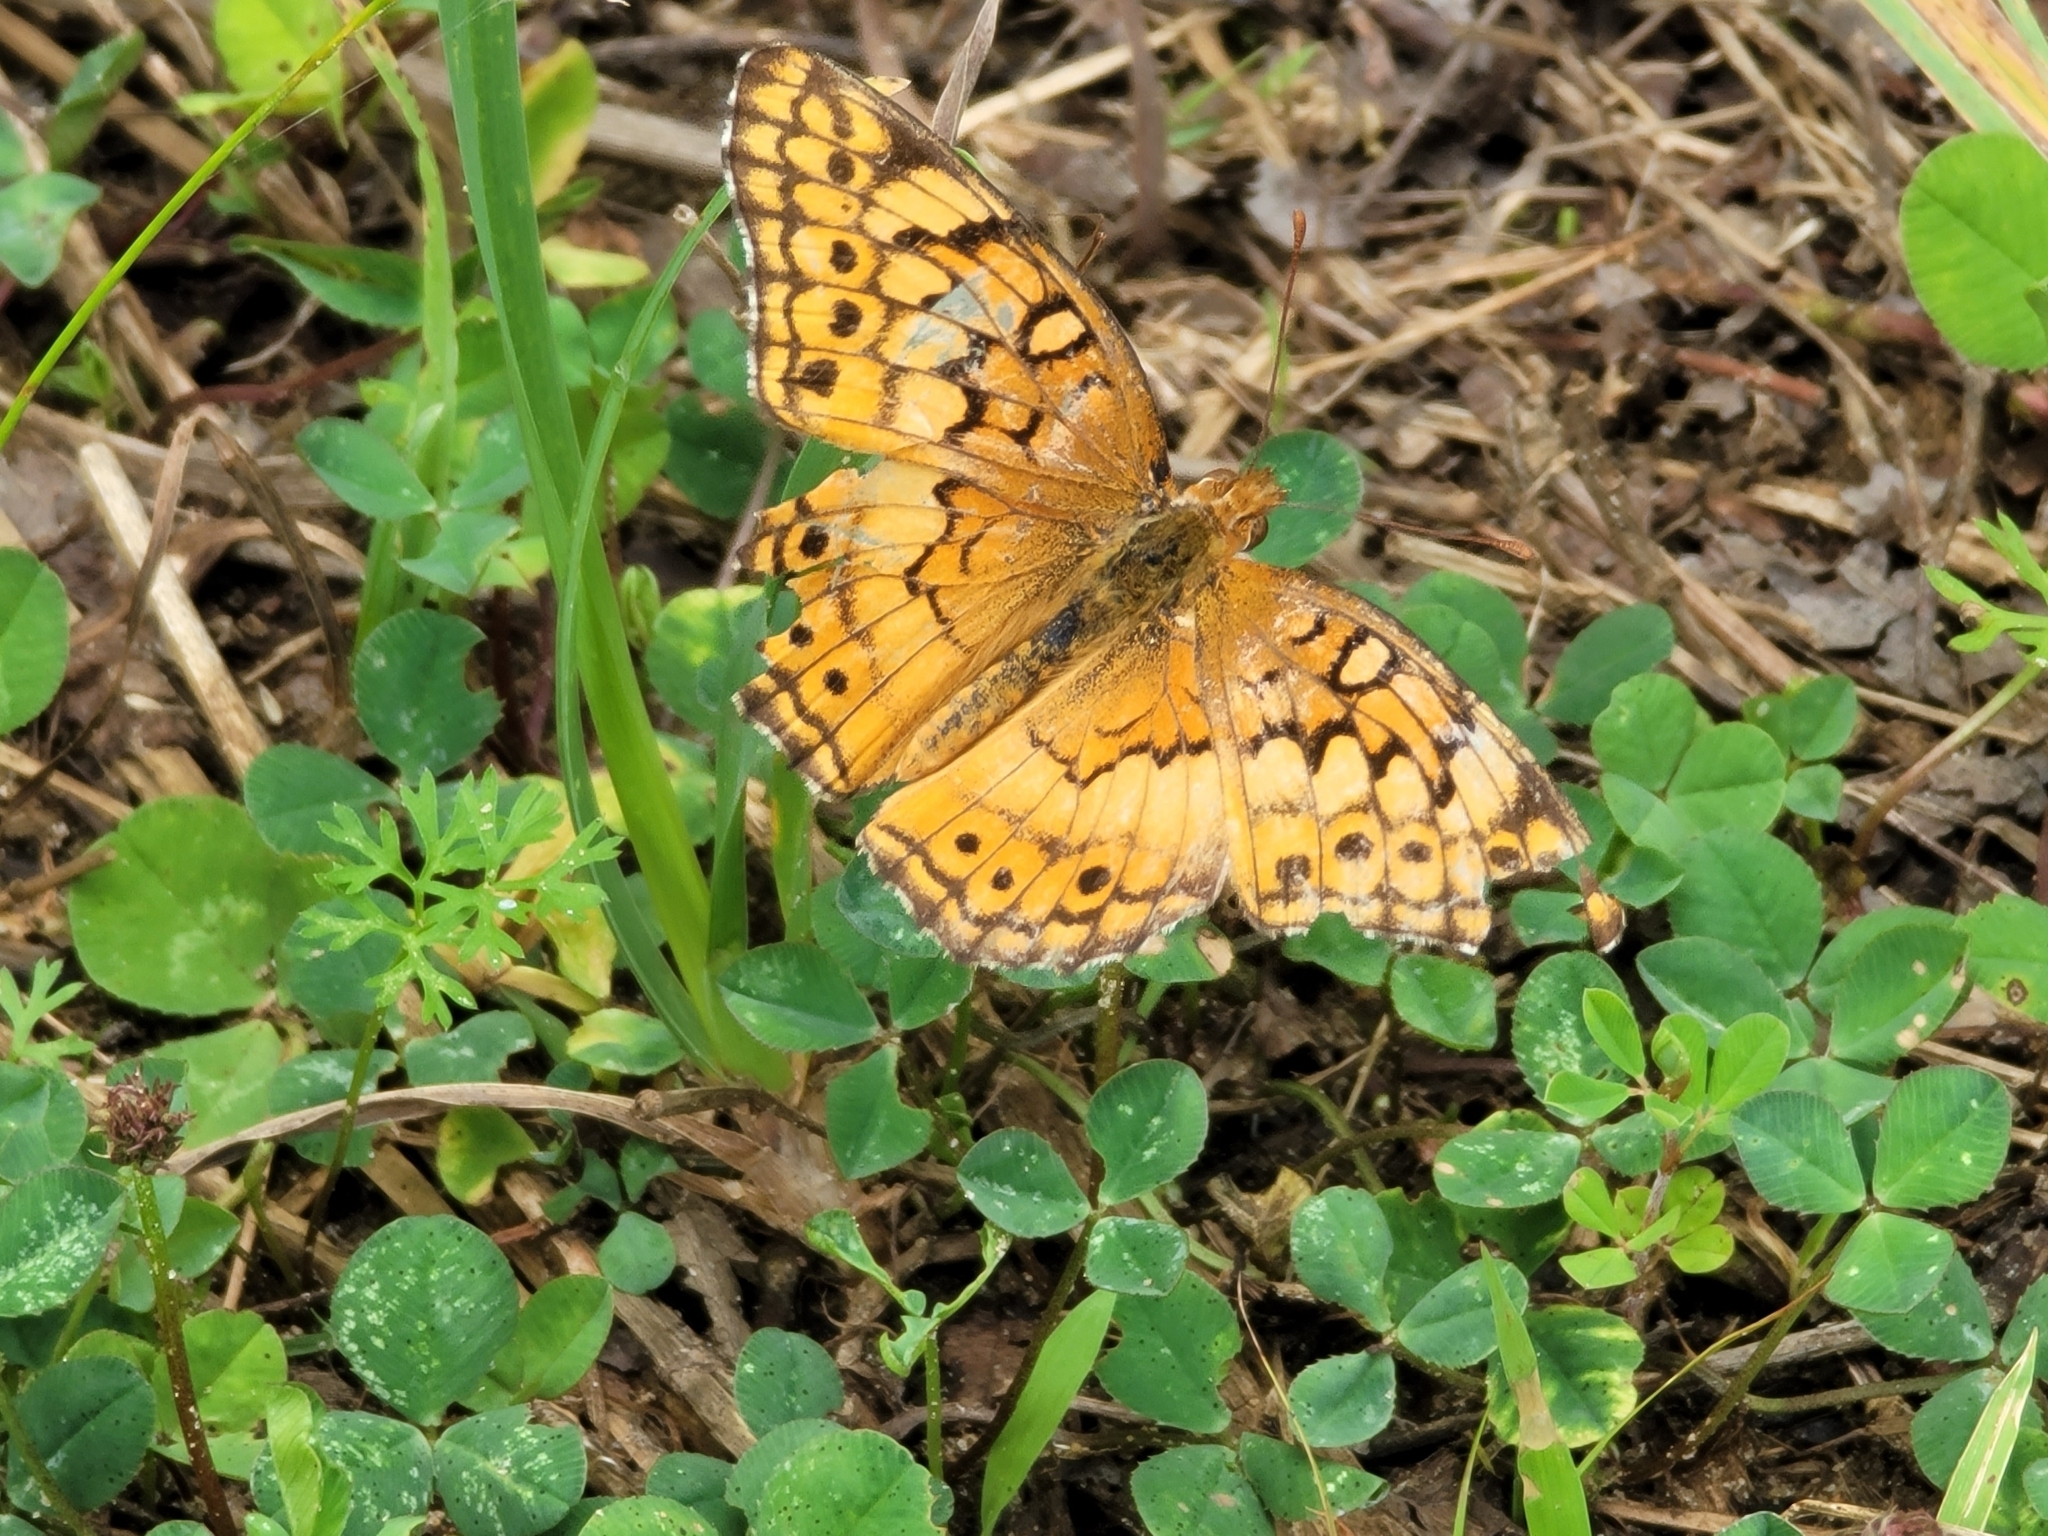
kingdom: Animalia
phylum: Arthropoda
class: Insecta
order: Lepidoptera
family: Nymphalidae
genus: Euptoieta
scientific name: Euptoieta claudia
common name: Variegated fritillary
